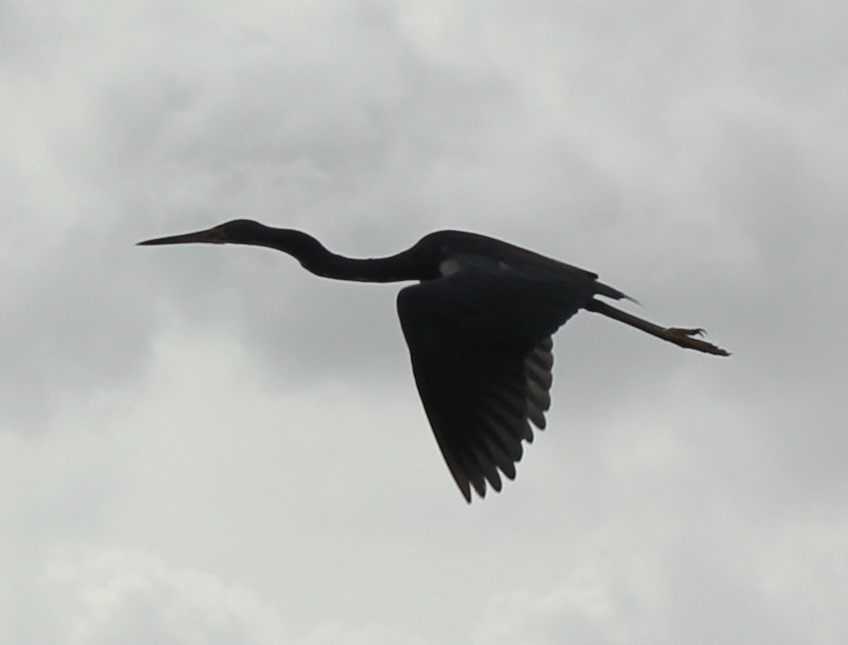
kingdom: Animalia
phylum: Chordata
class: Aves
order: Pelecaniformes
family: Ardeidae
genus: Egretta
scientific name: Egretta tricolor
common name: Tricolored heron
